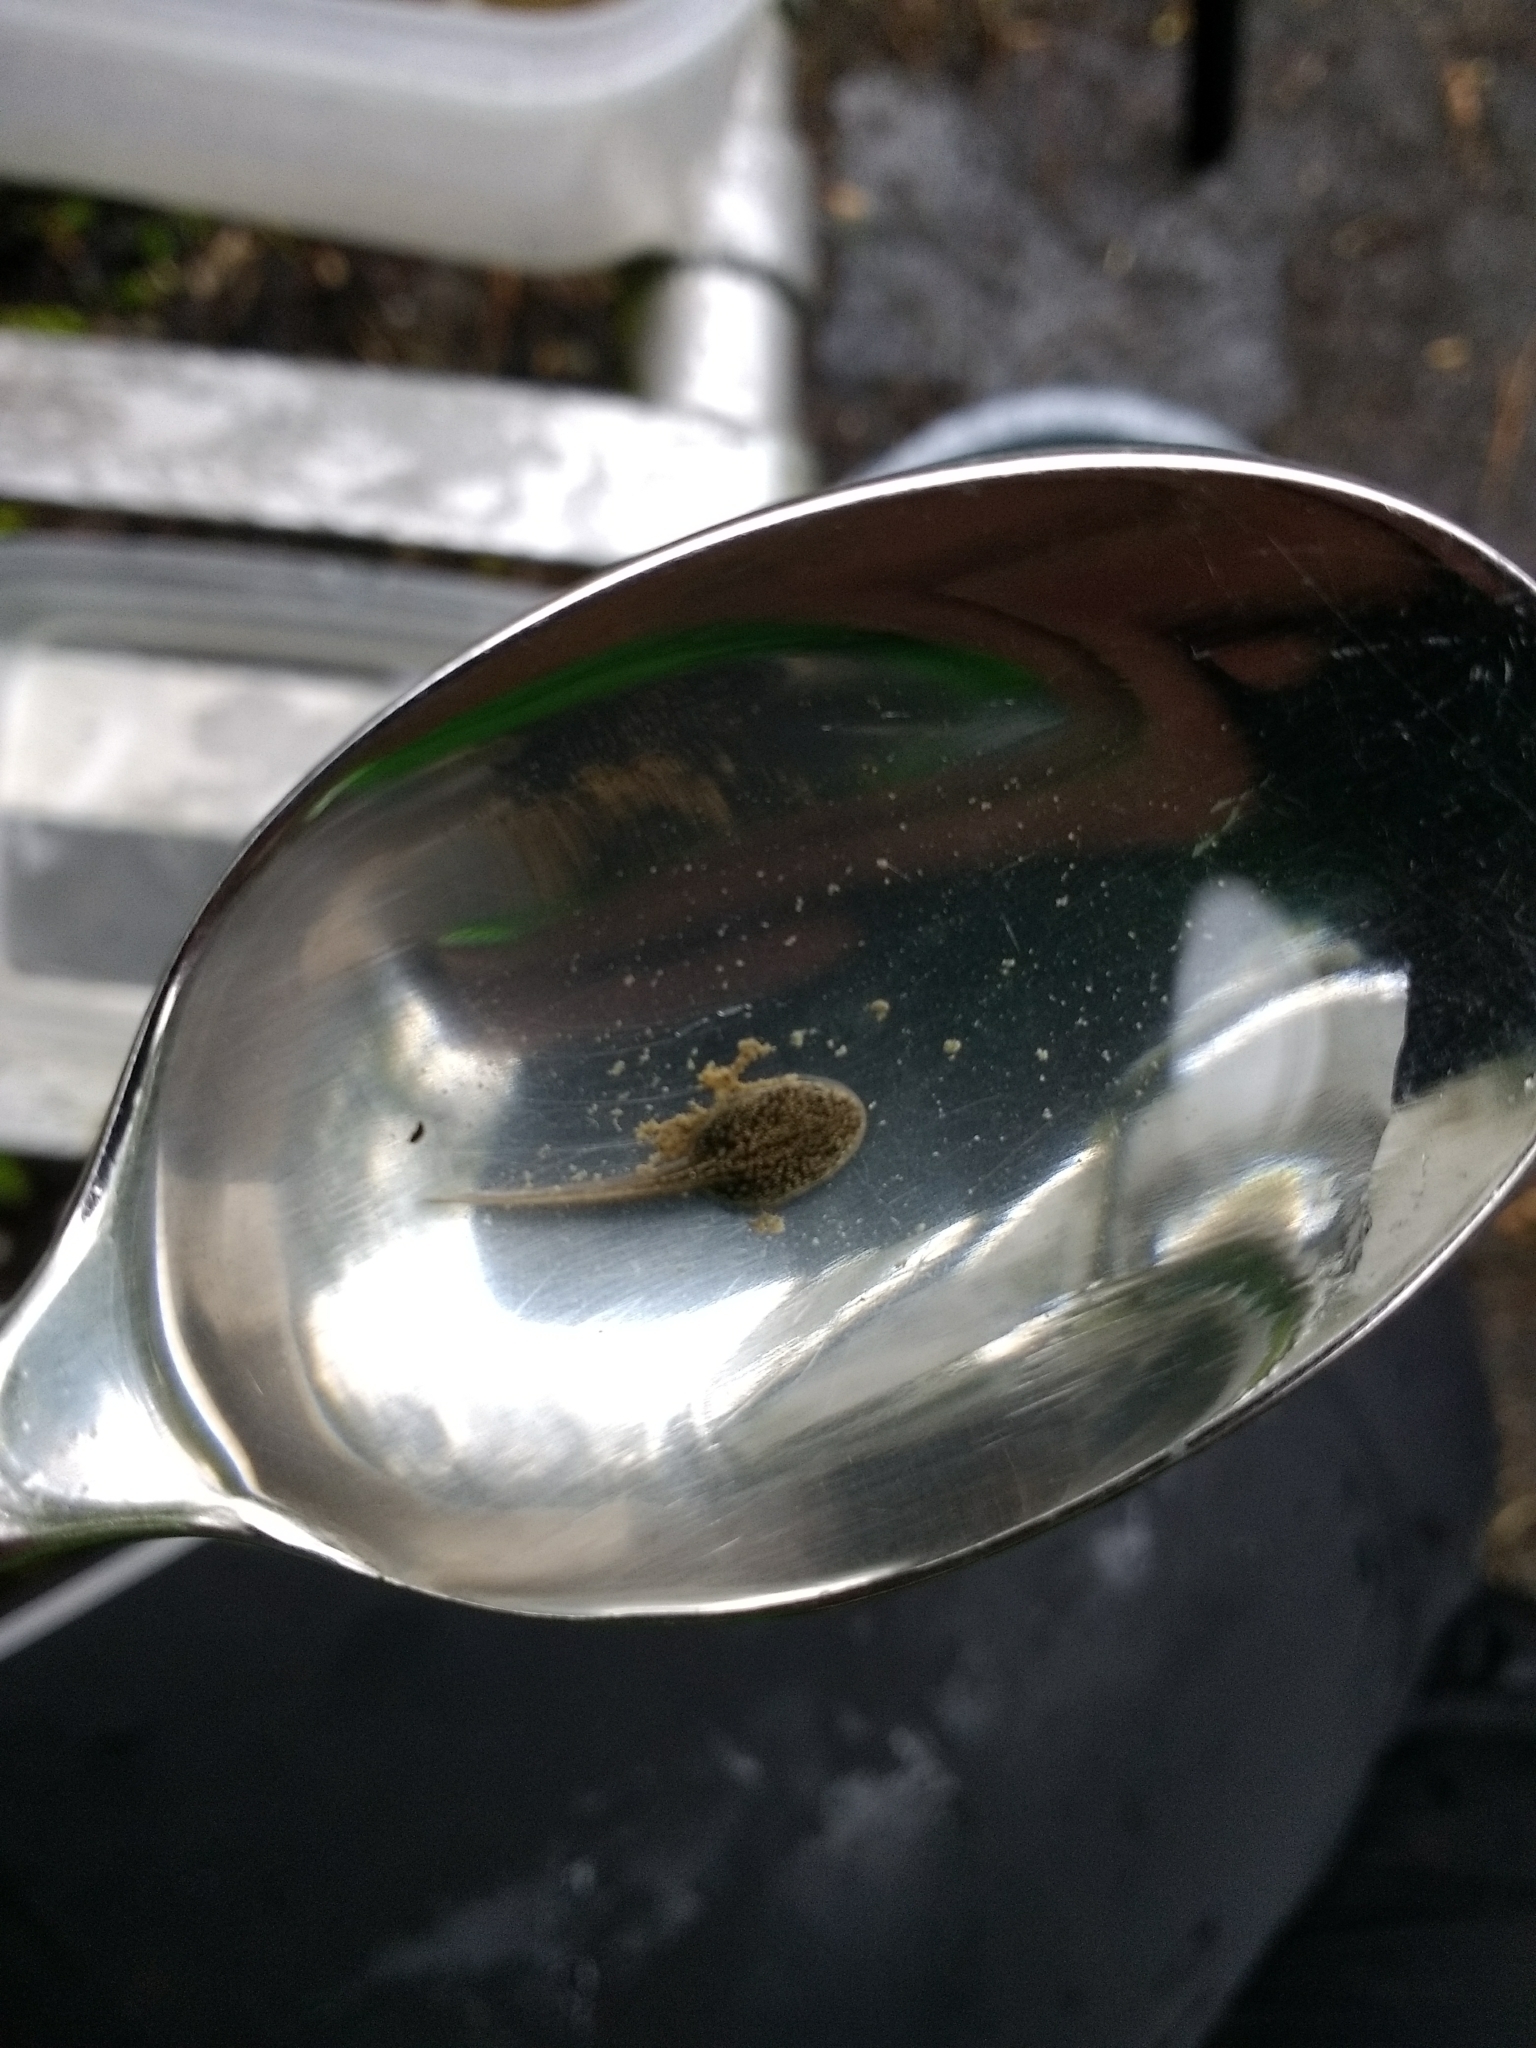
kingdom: Animalia
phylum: Chordata
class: Amphibia
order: Anura
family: Ranidae
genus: Rana
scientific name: Rana temporaria
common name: Common frog
